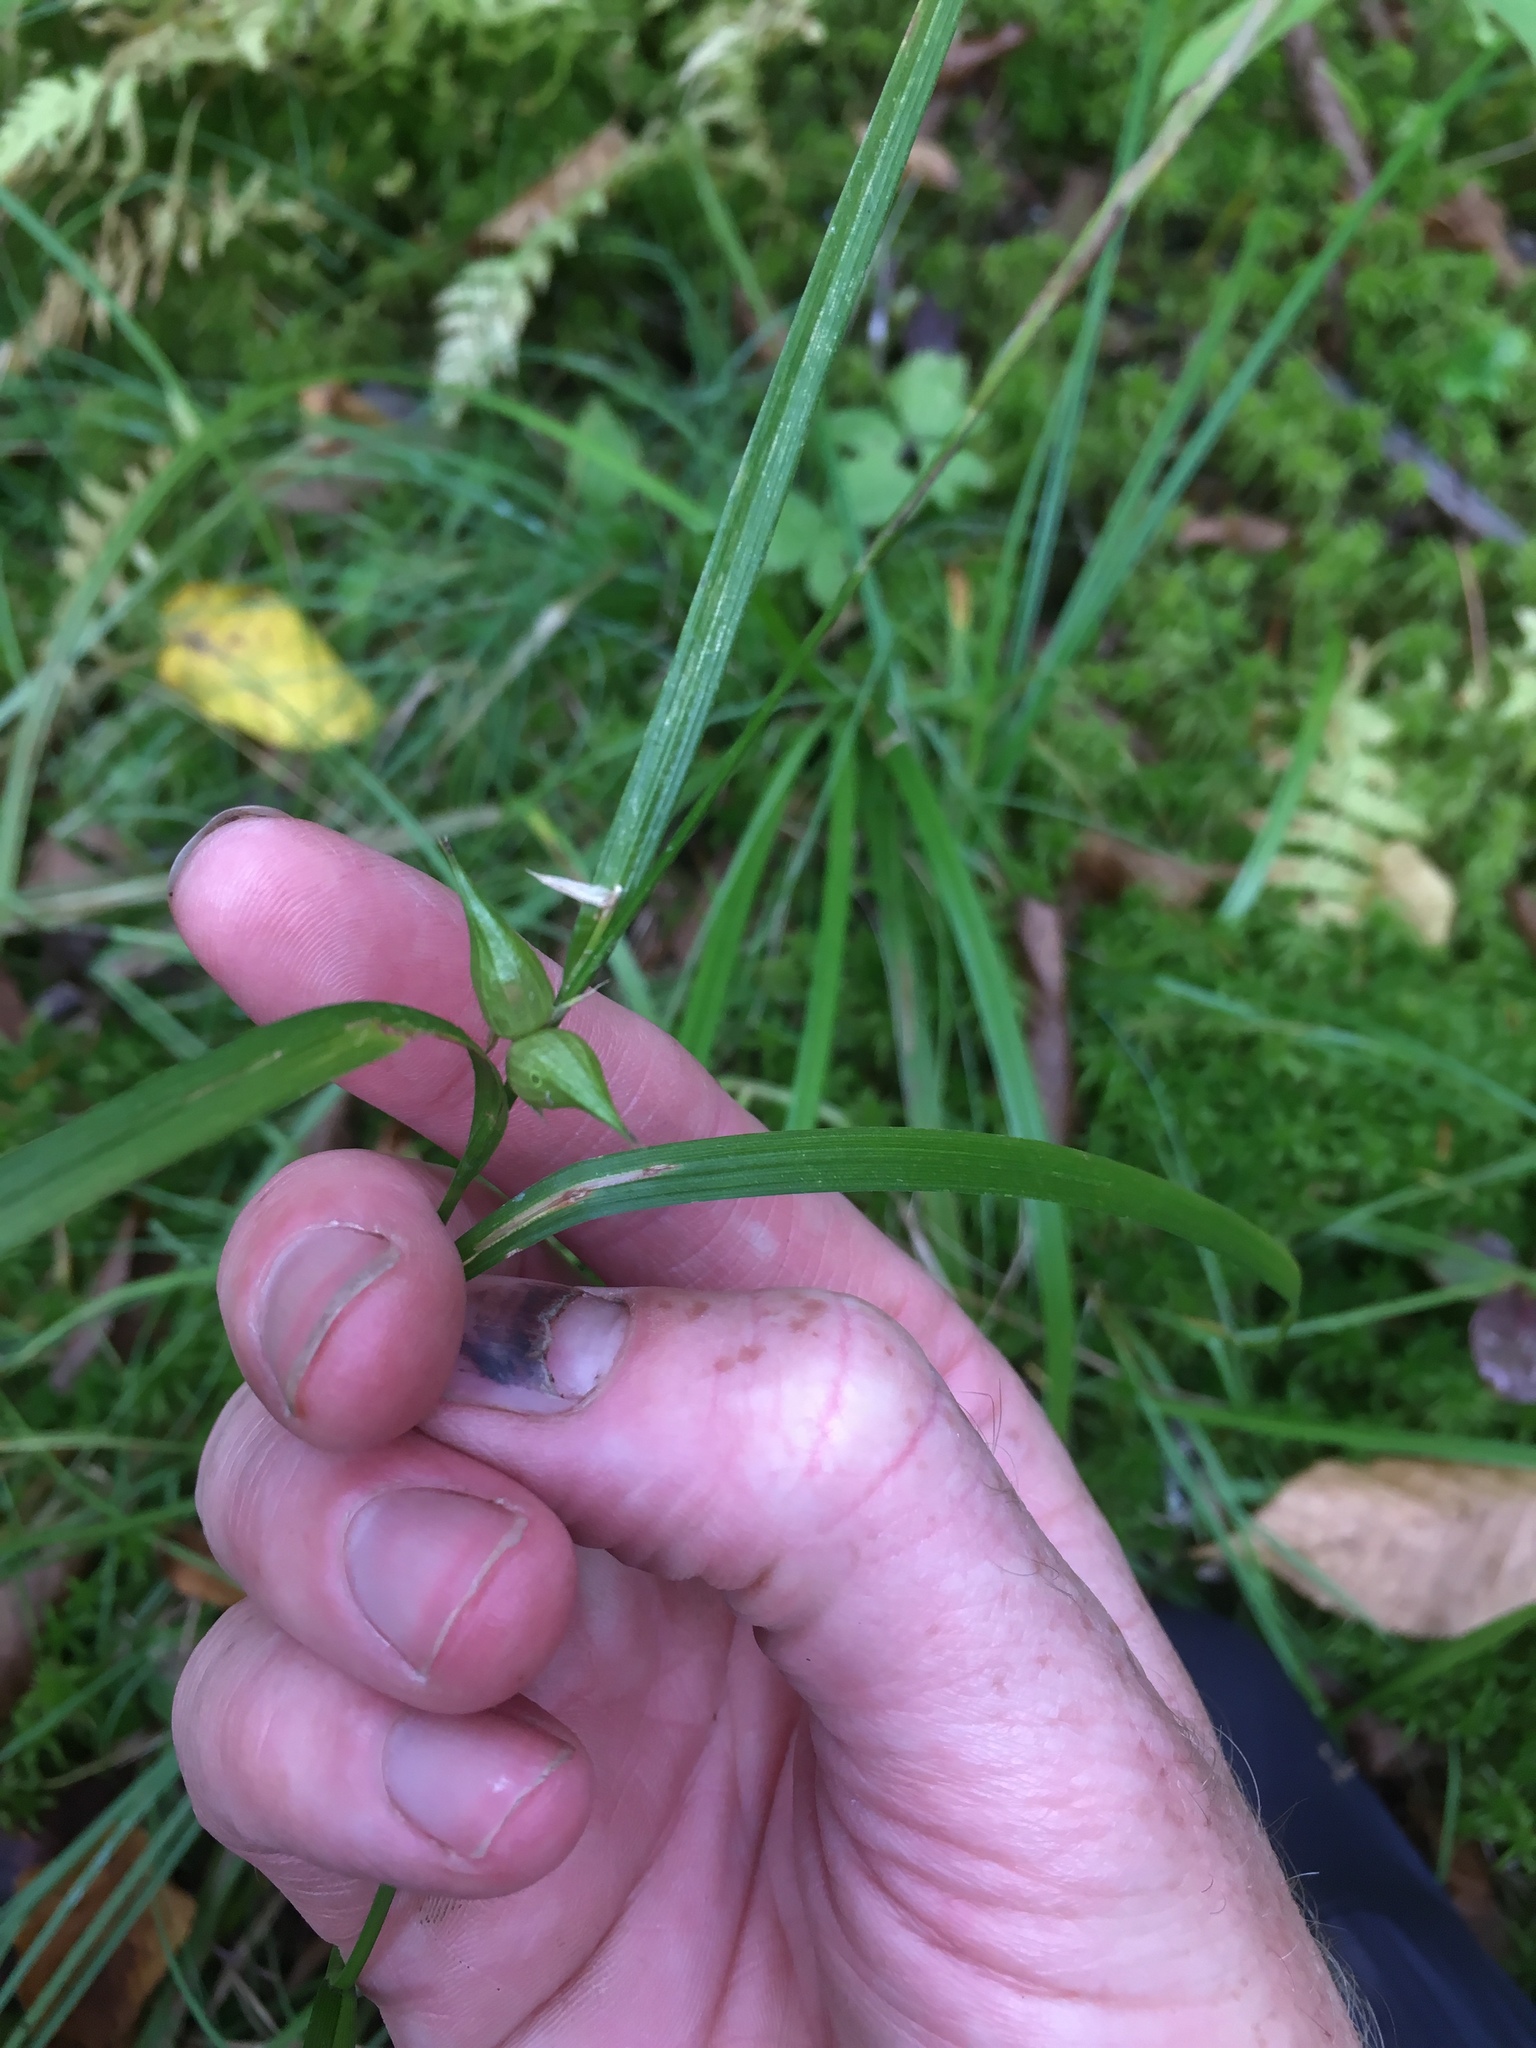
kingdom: Plantae
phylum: Tracheophyta
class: Liliopsida
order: Poales
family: Cyperaceae
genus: Carex
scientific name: Carex intumescens
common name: Greater bladder sedge
